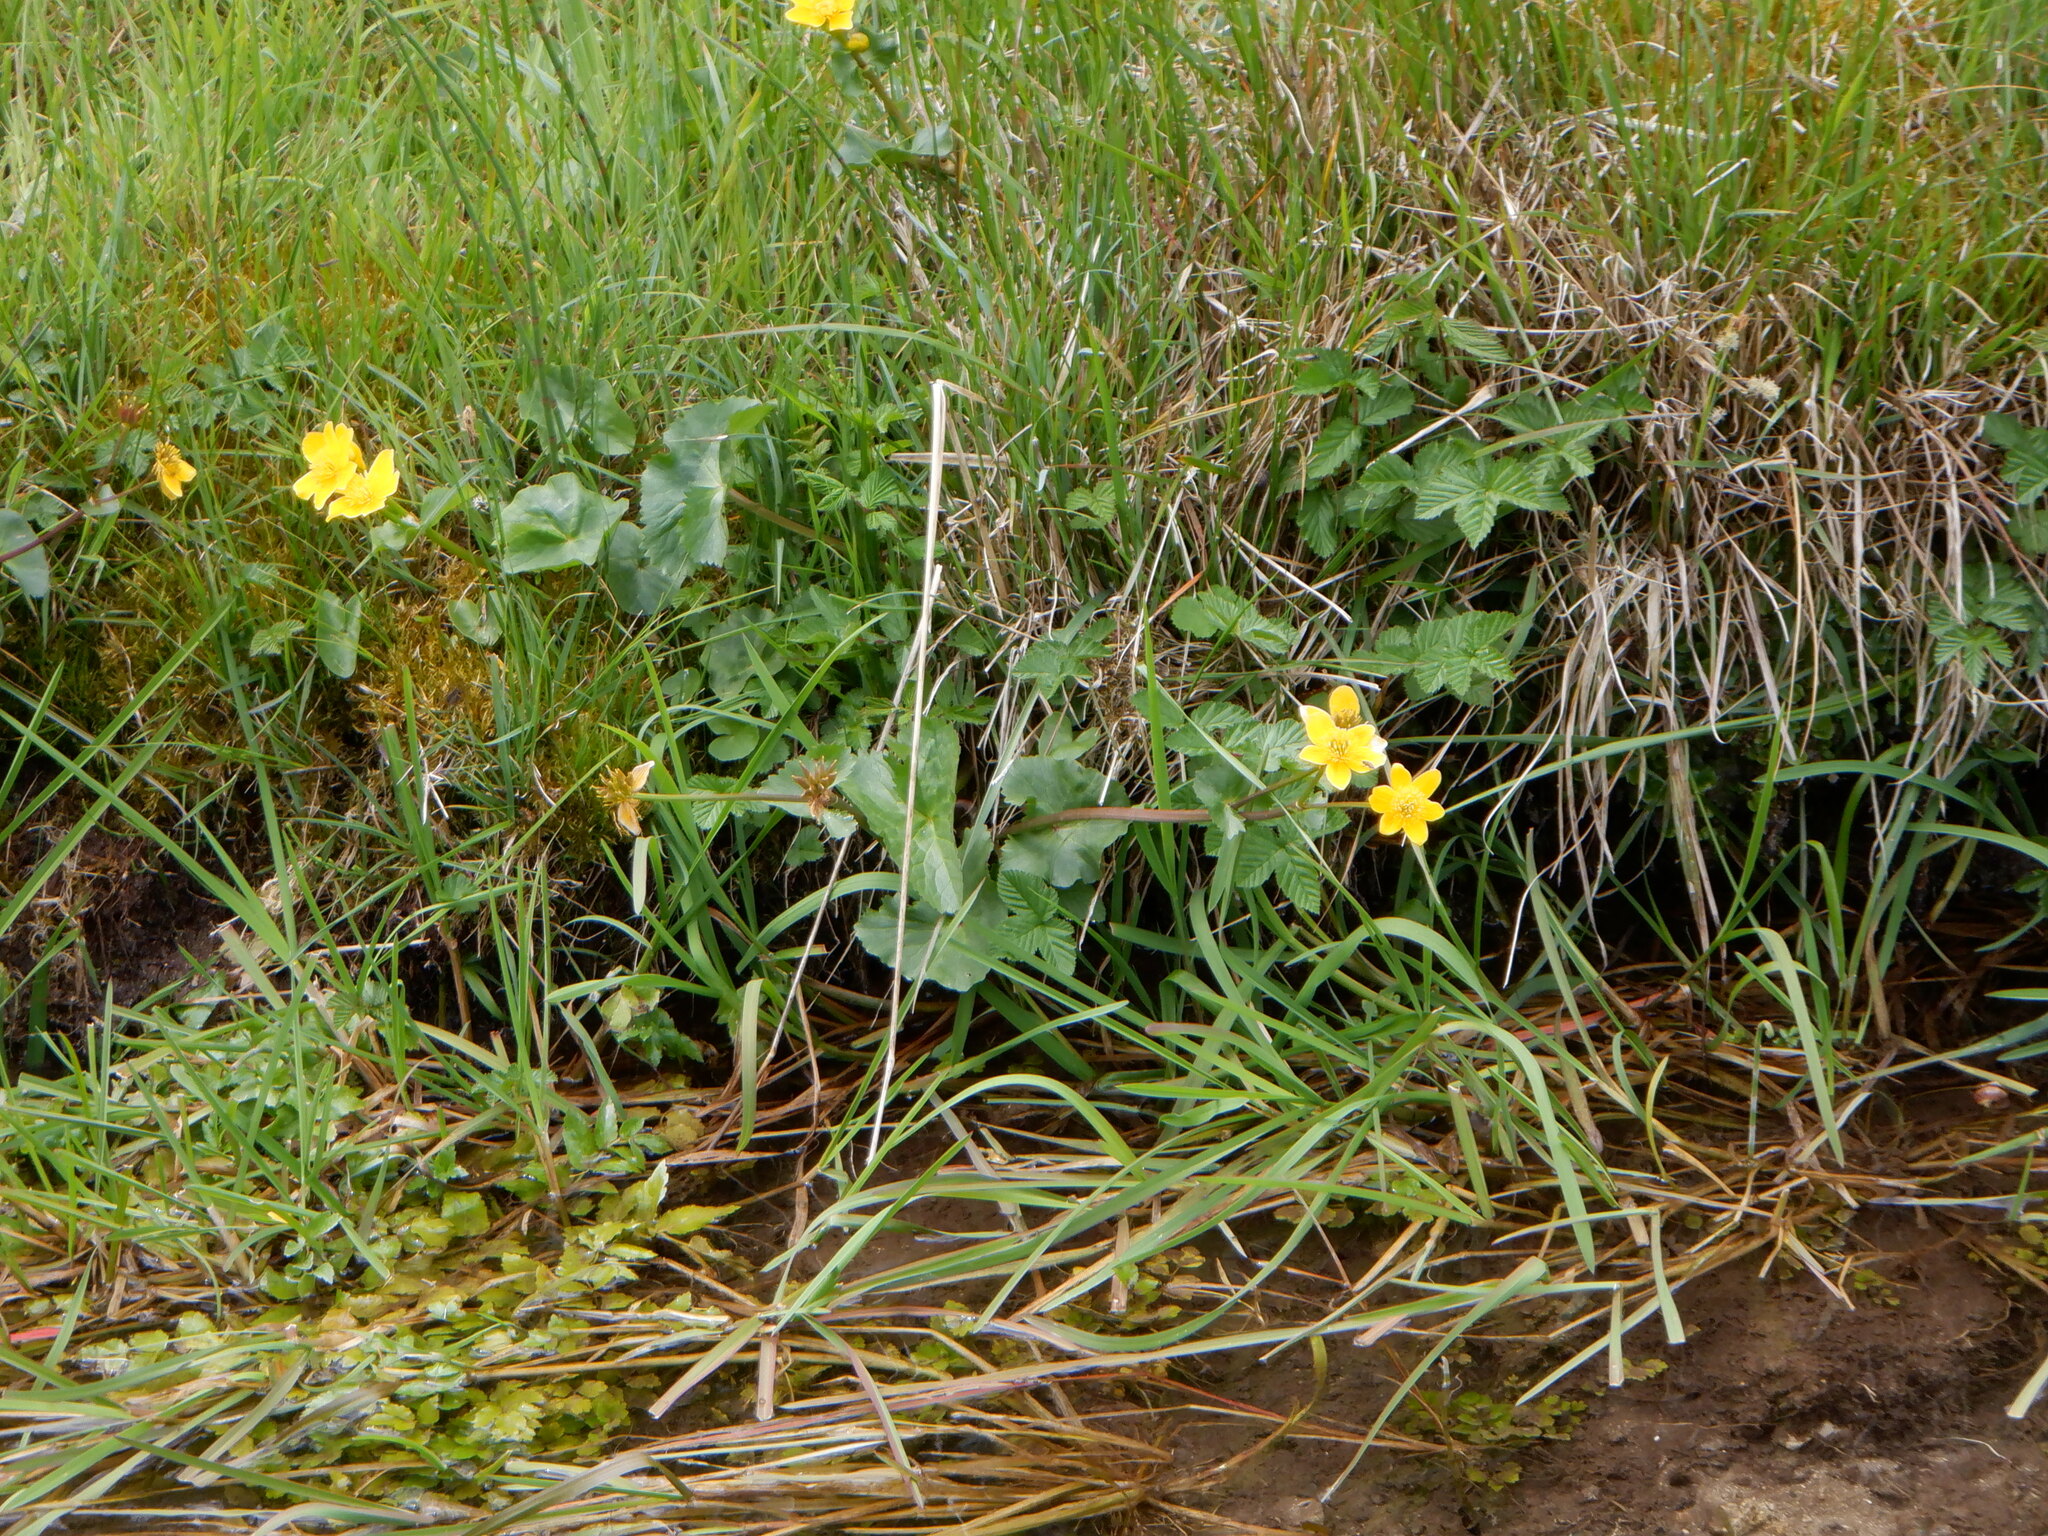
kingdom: Plantae
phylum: Tracheophyta
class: Magnoliopsida
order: Ranunculales
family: Ranunculaceae
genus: Caltha
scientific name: Caltha palustris
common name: Marsh marigold
